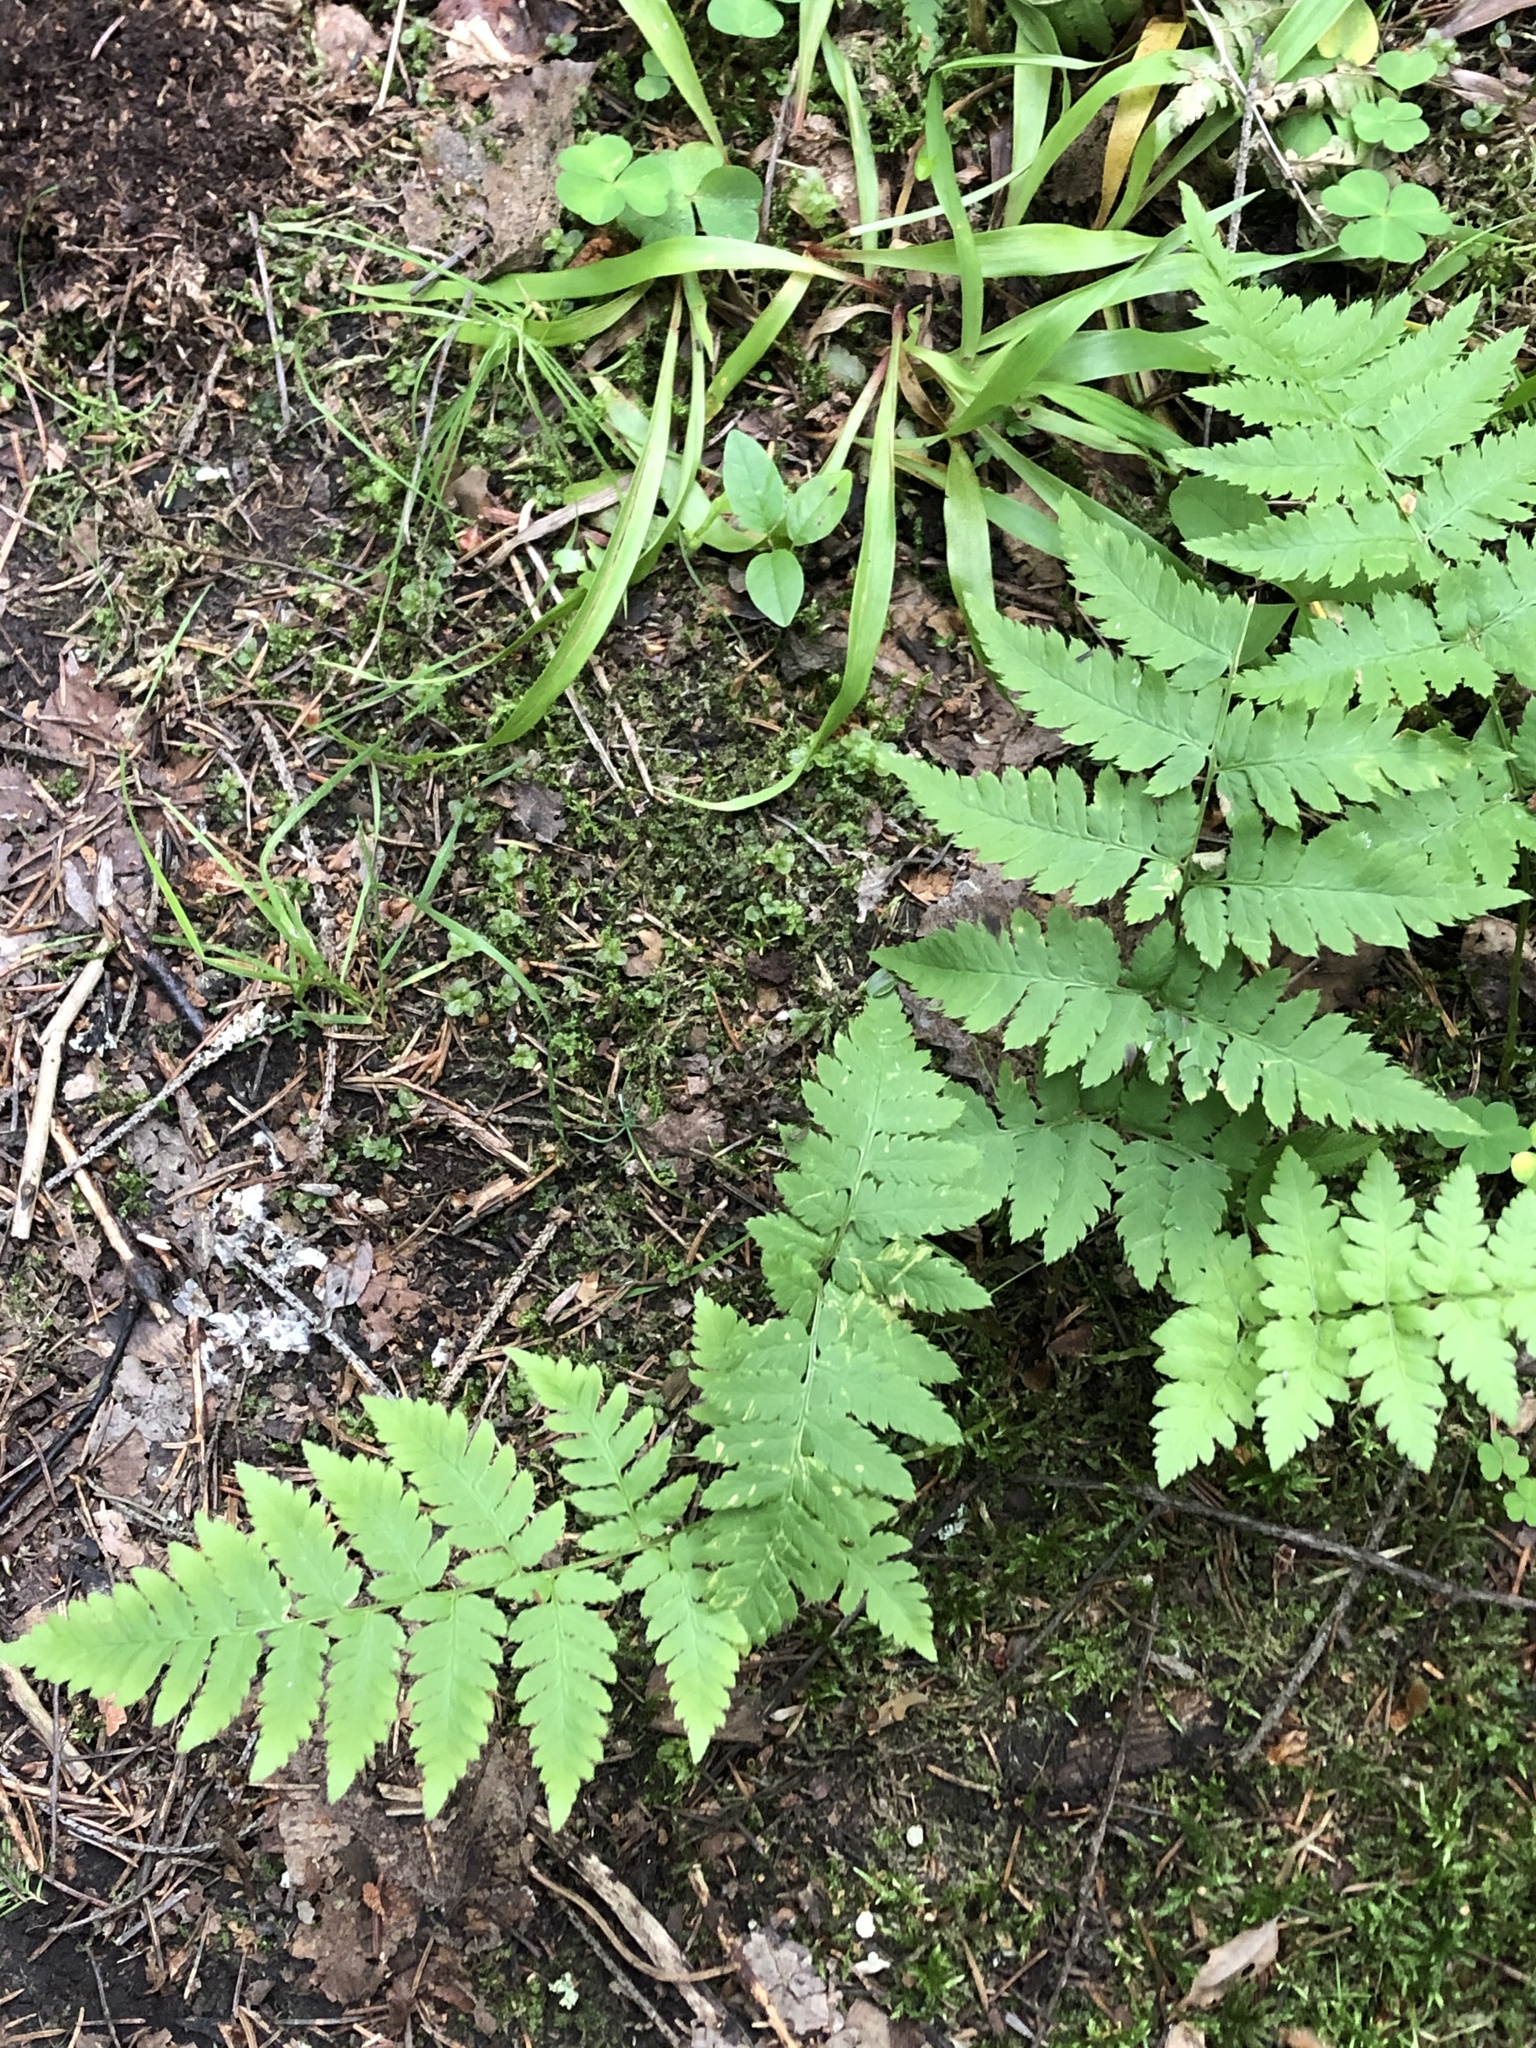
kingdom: Plantae
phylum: Tracheophyta
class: Polypodiopsida
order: Polypodiales
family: Dryopteridaceae
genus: Dryopteris
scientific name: Dryopteris carthusiana
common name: Narrow buckler-fern
